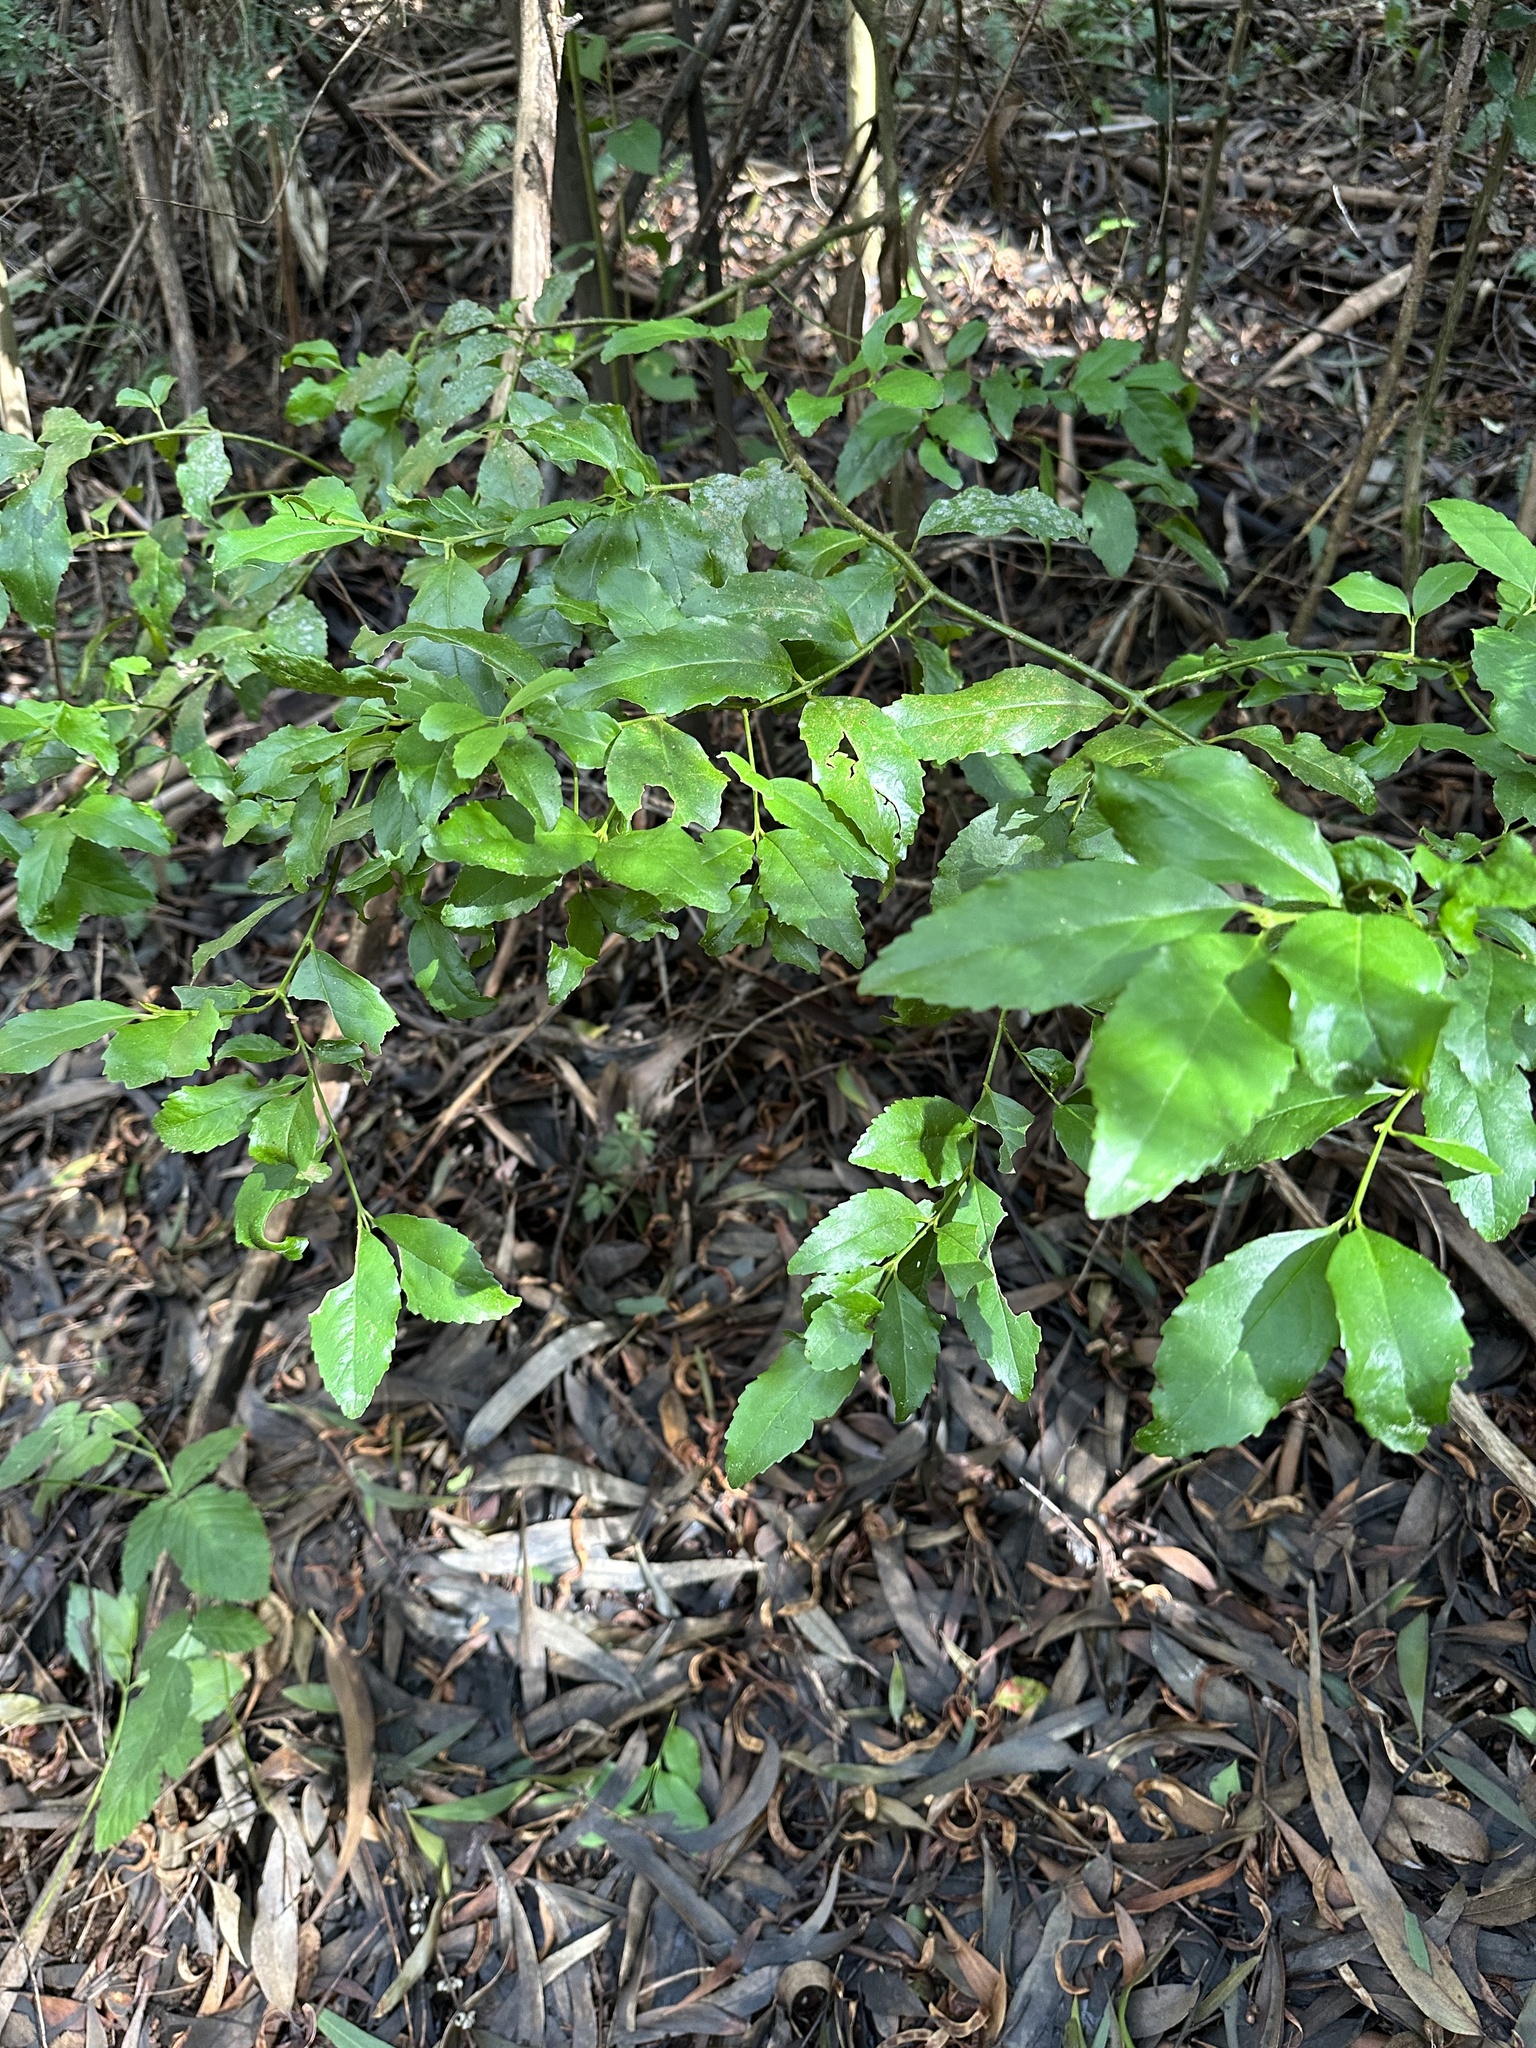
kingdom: Plantae
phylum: Tracheophyta
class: Magnoliopsida
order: Laurales
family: Atherospermataceae
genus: Laurelia
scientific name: Laurelia sempervirens
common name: Chilean laurel
